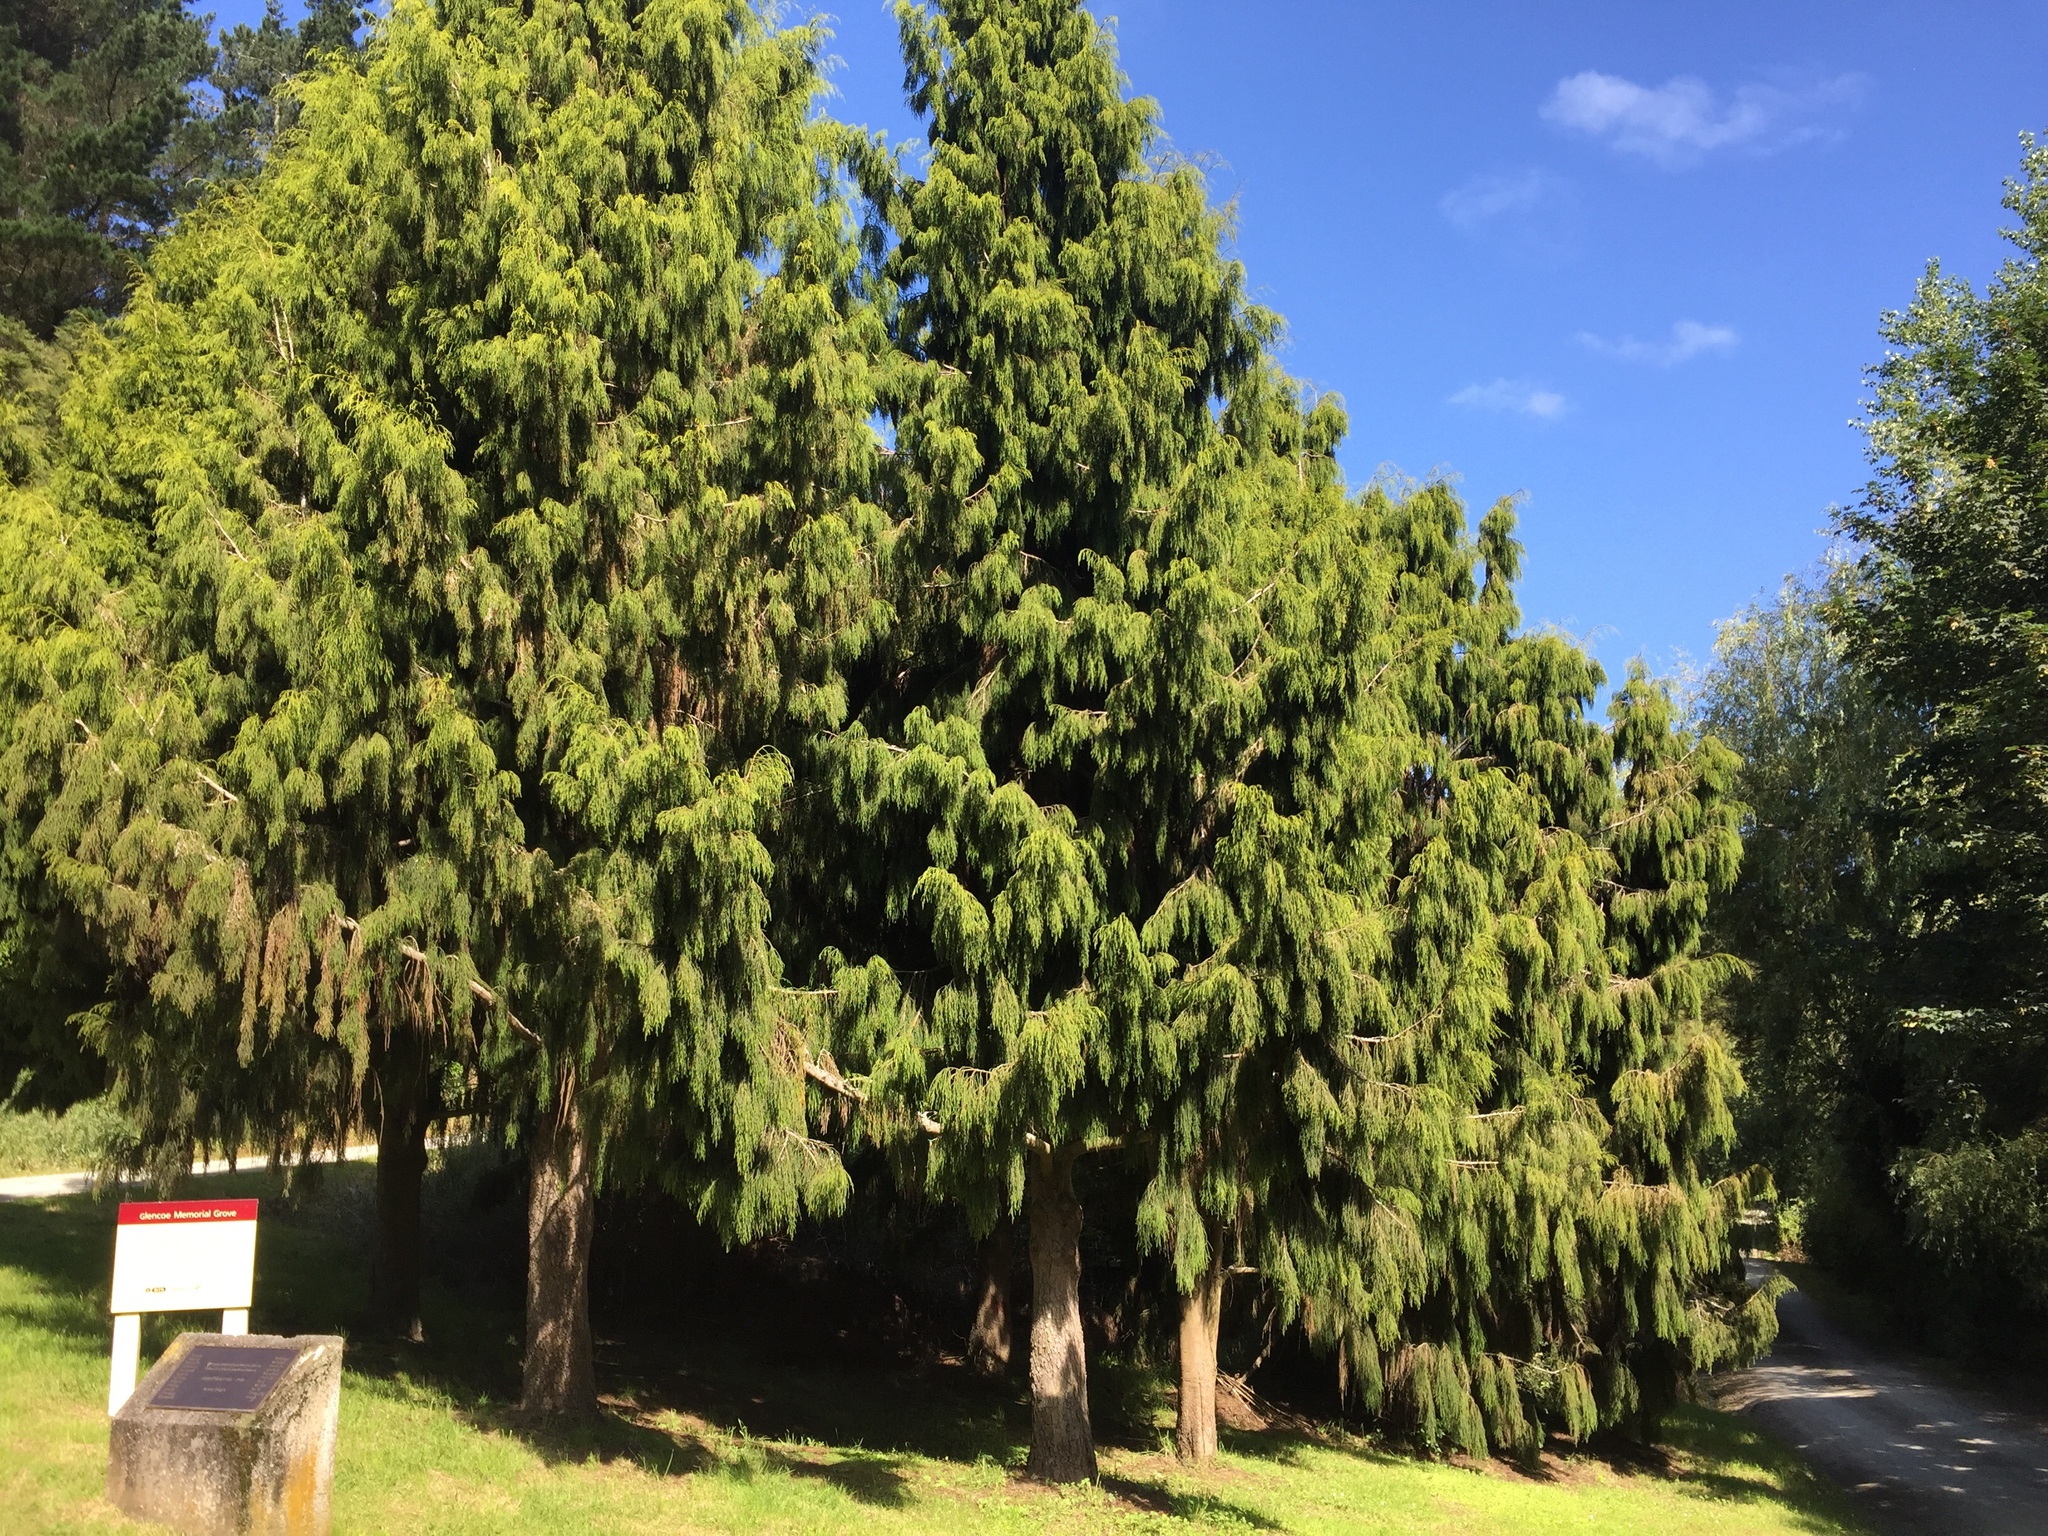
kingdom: Plantae
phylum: Tracheophyta
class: Pinopsida
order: Pinales
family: Podocarpaceae
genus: Dacrydium
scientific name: Dacrydium cupressinum
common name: Red pine
